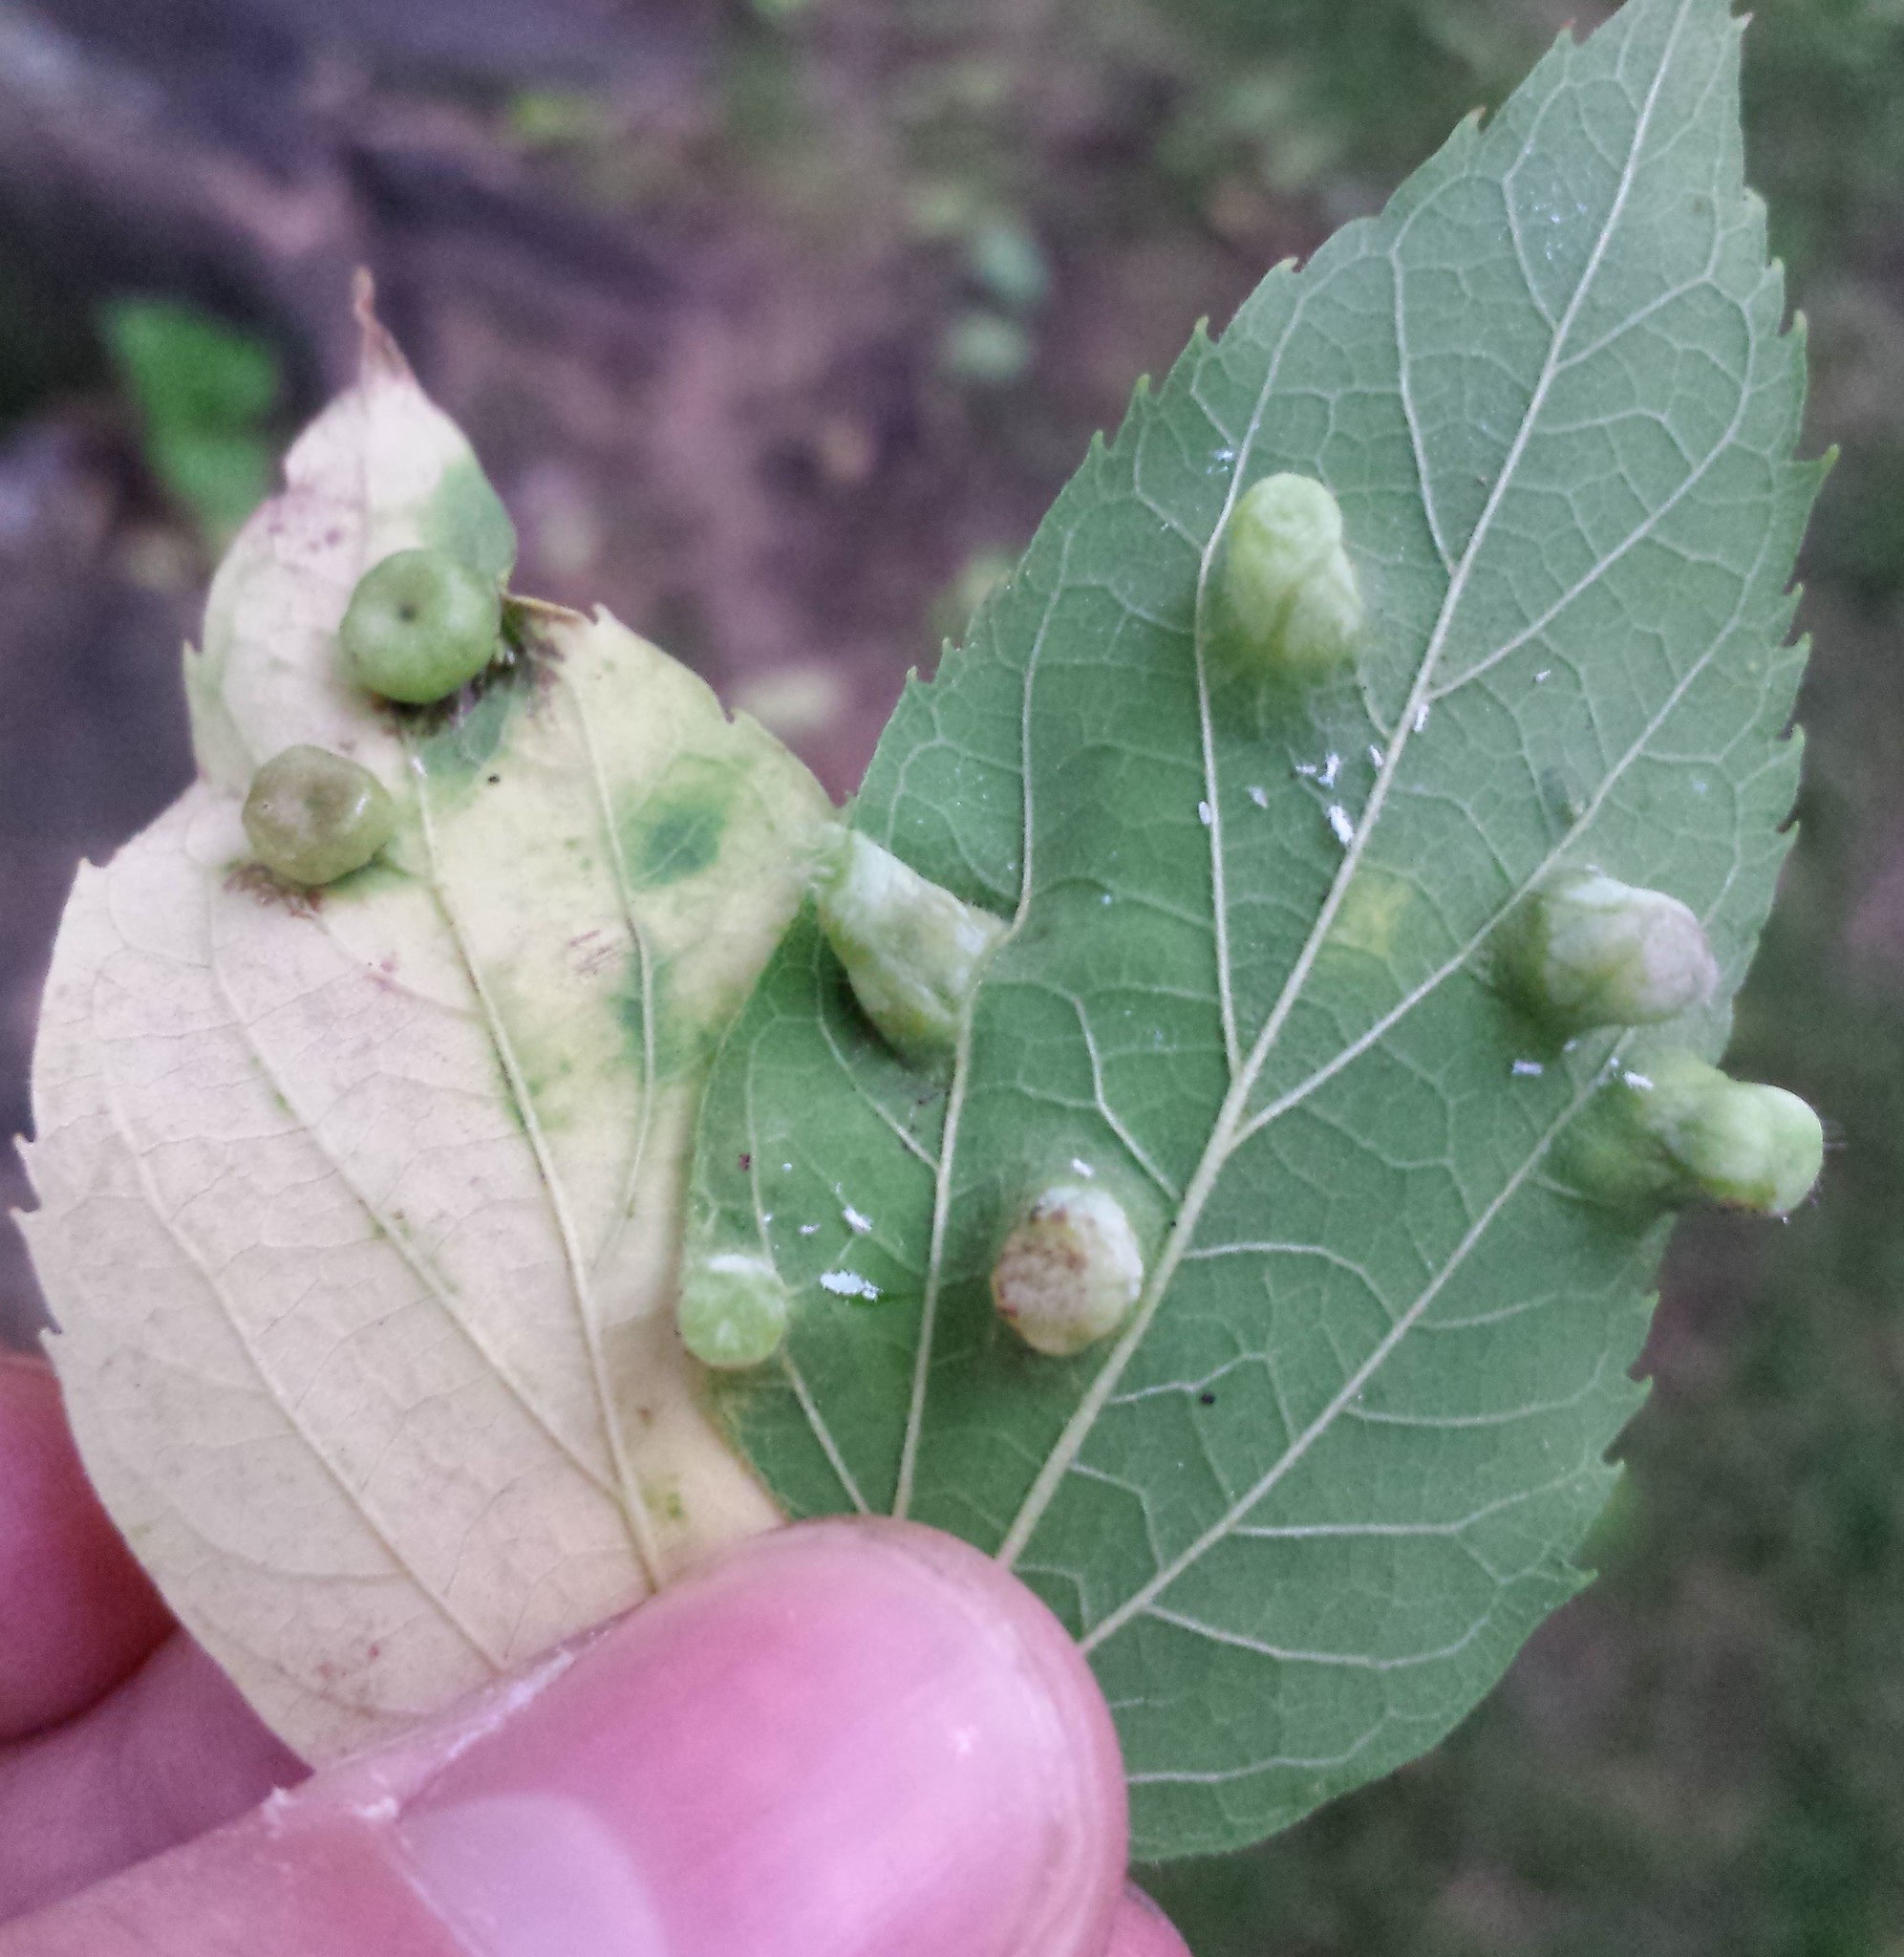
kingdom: Animalia
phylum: Arthropoda
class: Insecta
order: Hemiptera
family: Aphalaridae
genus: Pachypsylla
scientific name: Pachypsylla celtidismamma
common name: Hackberry nipplegall psyllid
